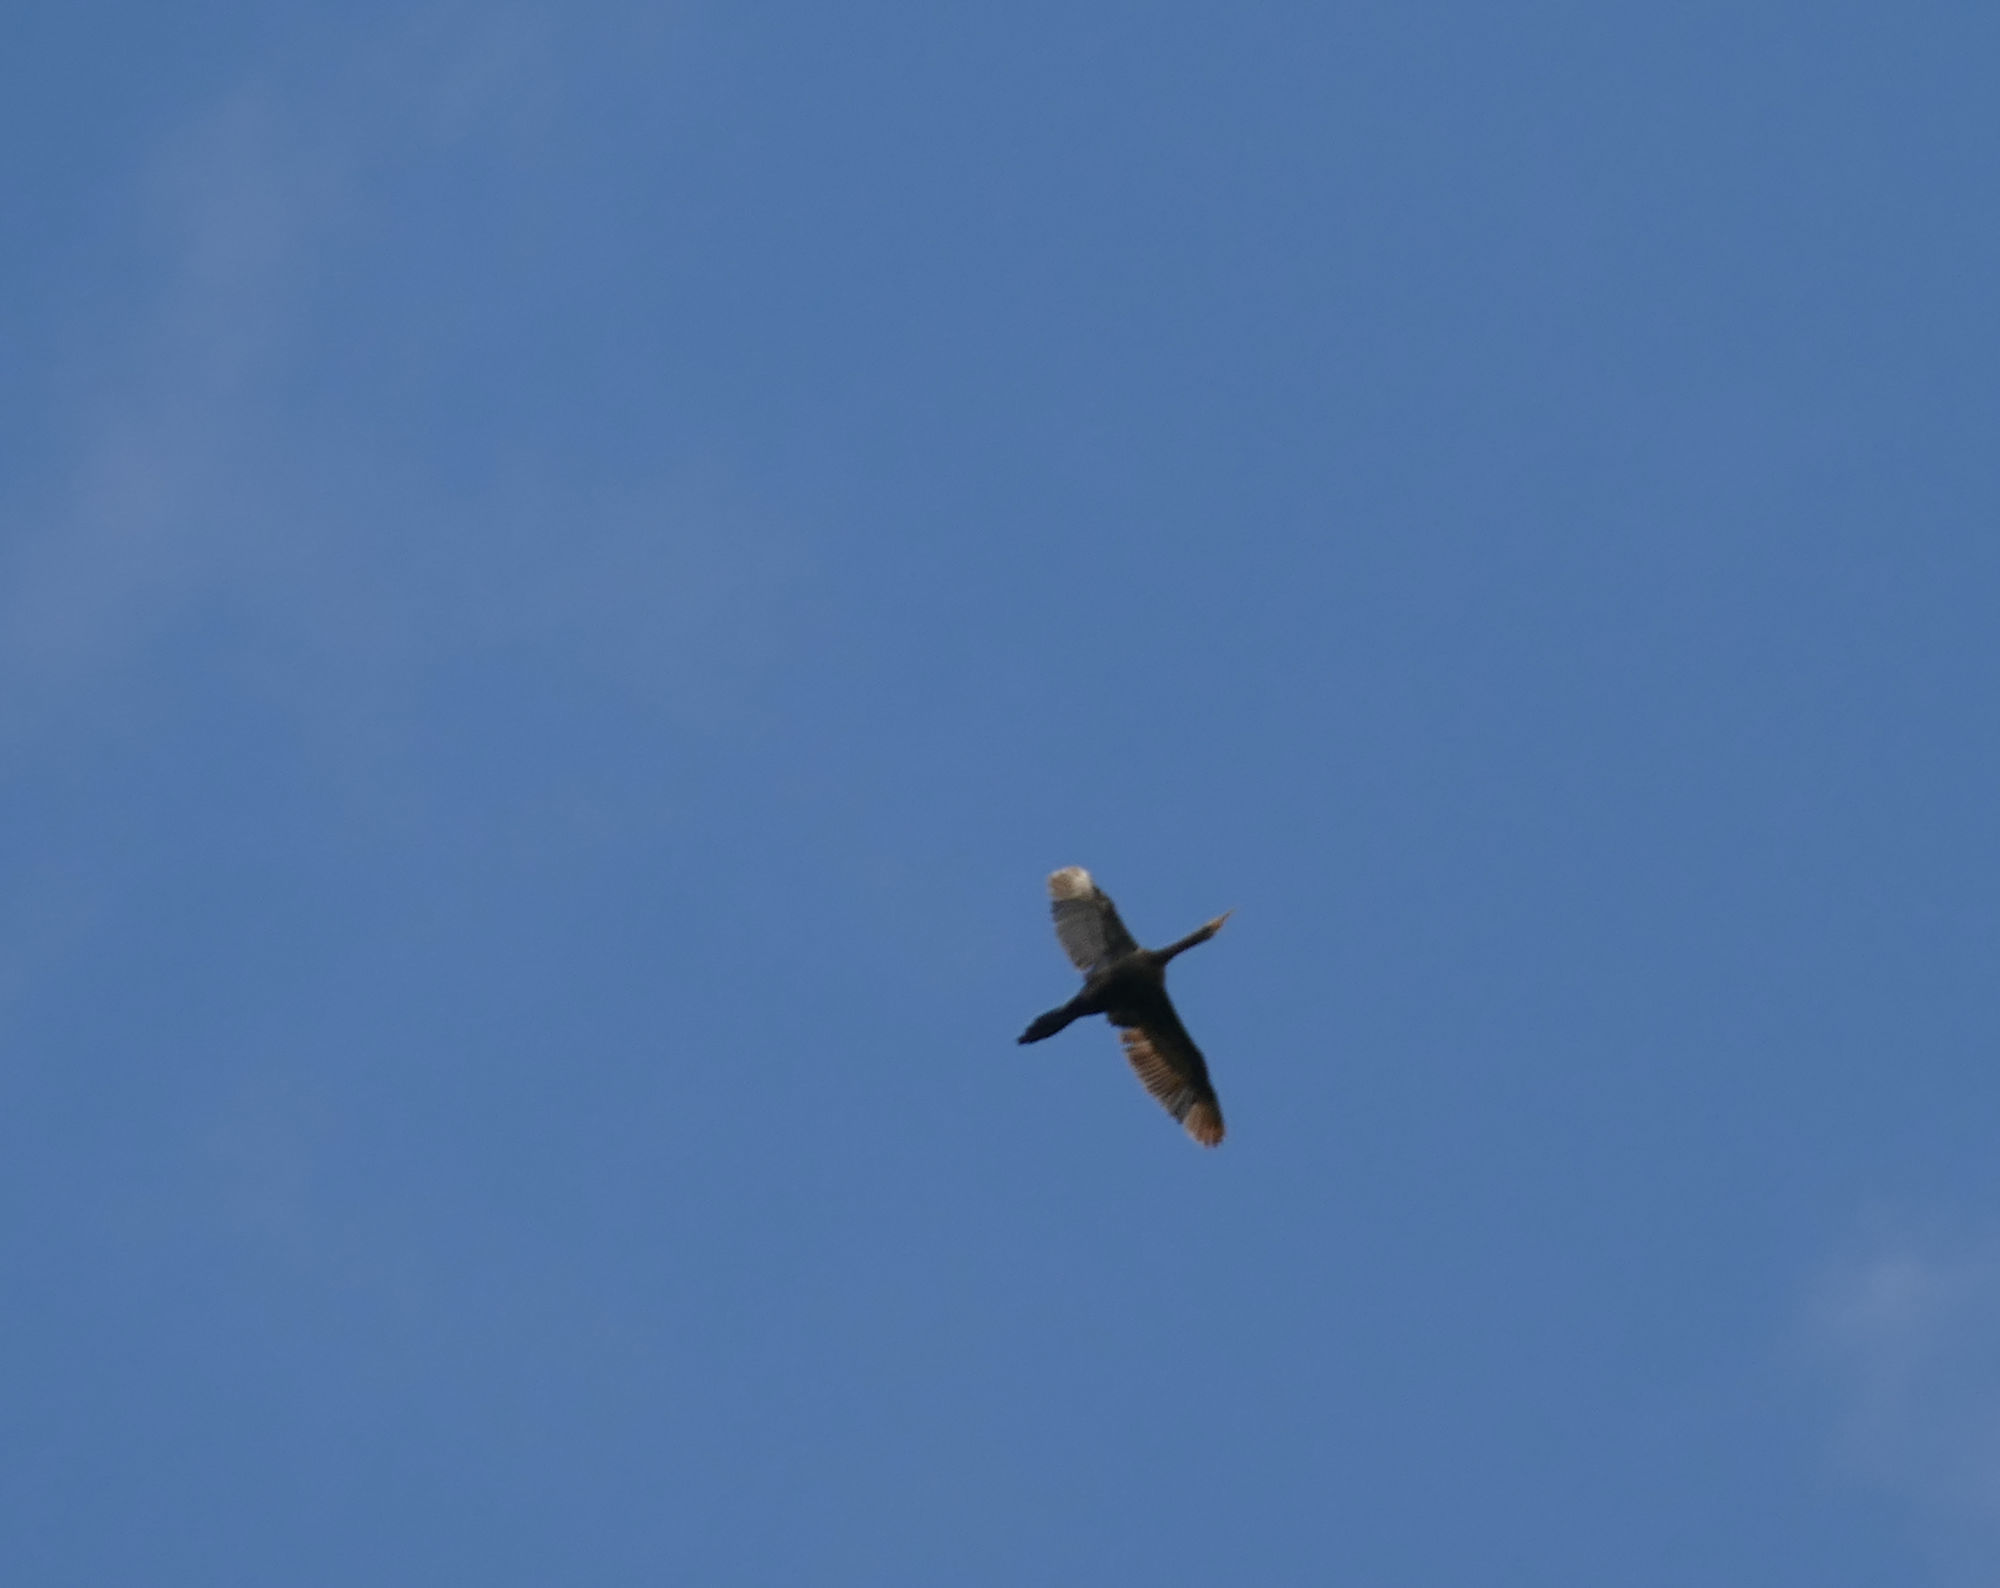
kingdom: Animalia
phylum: Chordata
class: Aves
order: Suliformes
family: Phalacrocoracidae
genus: Phalacrocorax
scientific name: Phalacrocorax brasilianus
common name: Neotropic cormorant
